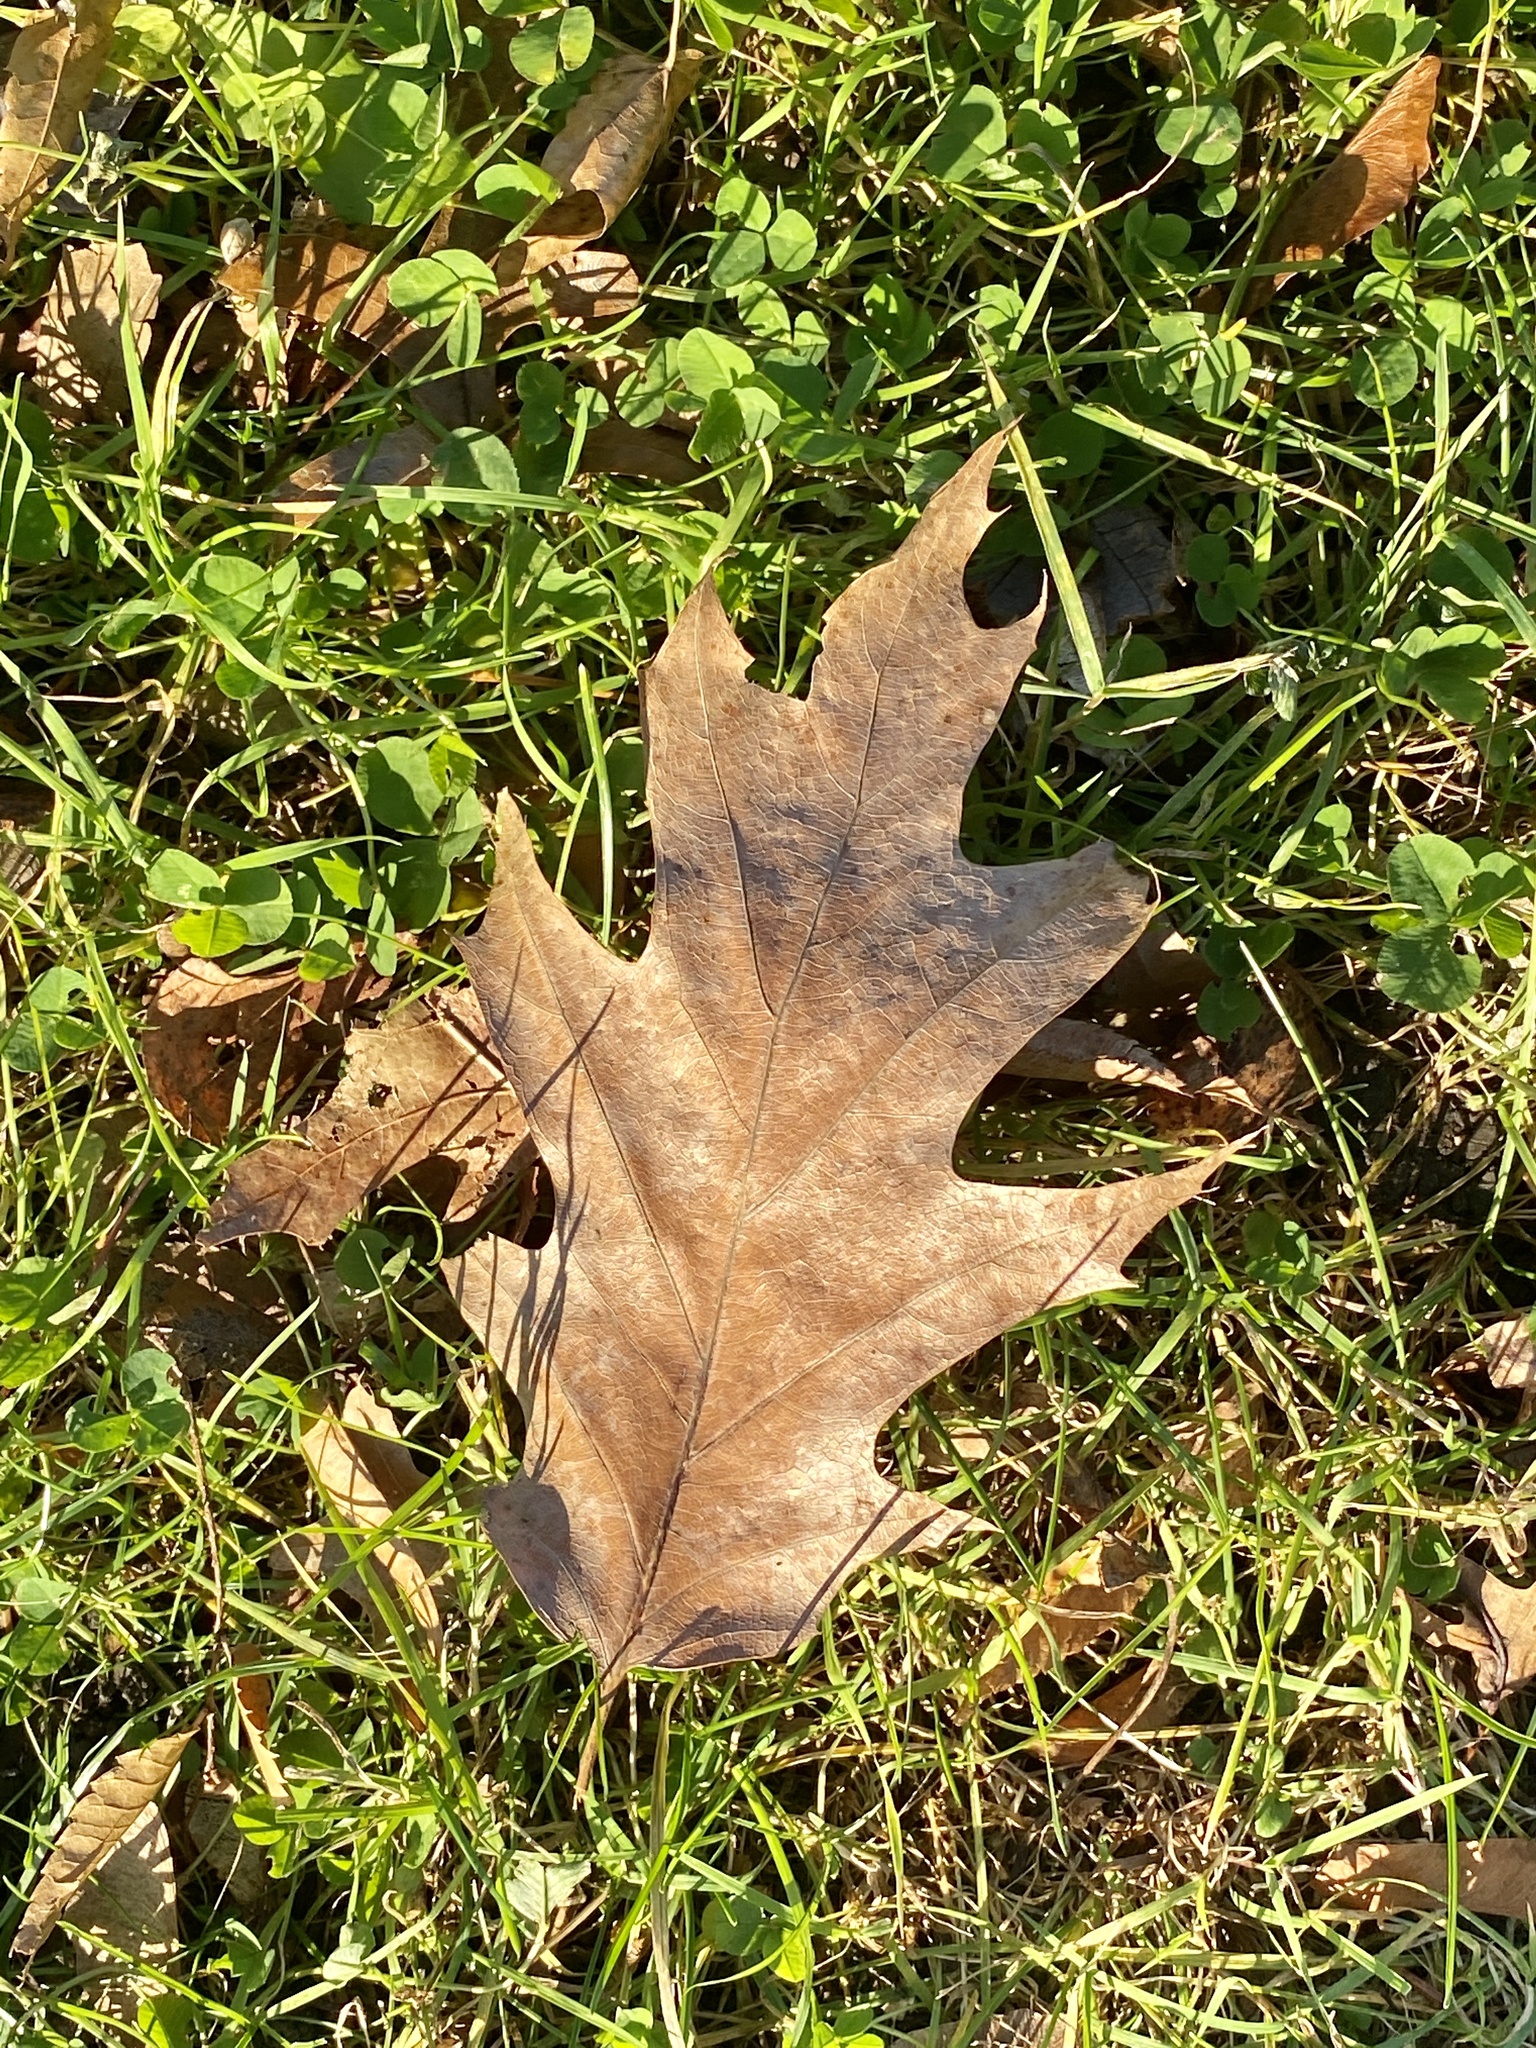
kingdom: Plantae
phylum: Tracheophyta
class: Magnoliopsida
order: Fagales
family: Fagaceae
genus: Quercus
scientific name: Quercus rubra
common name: Red oak
